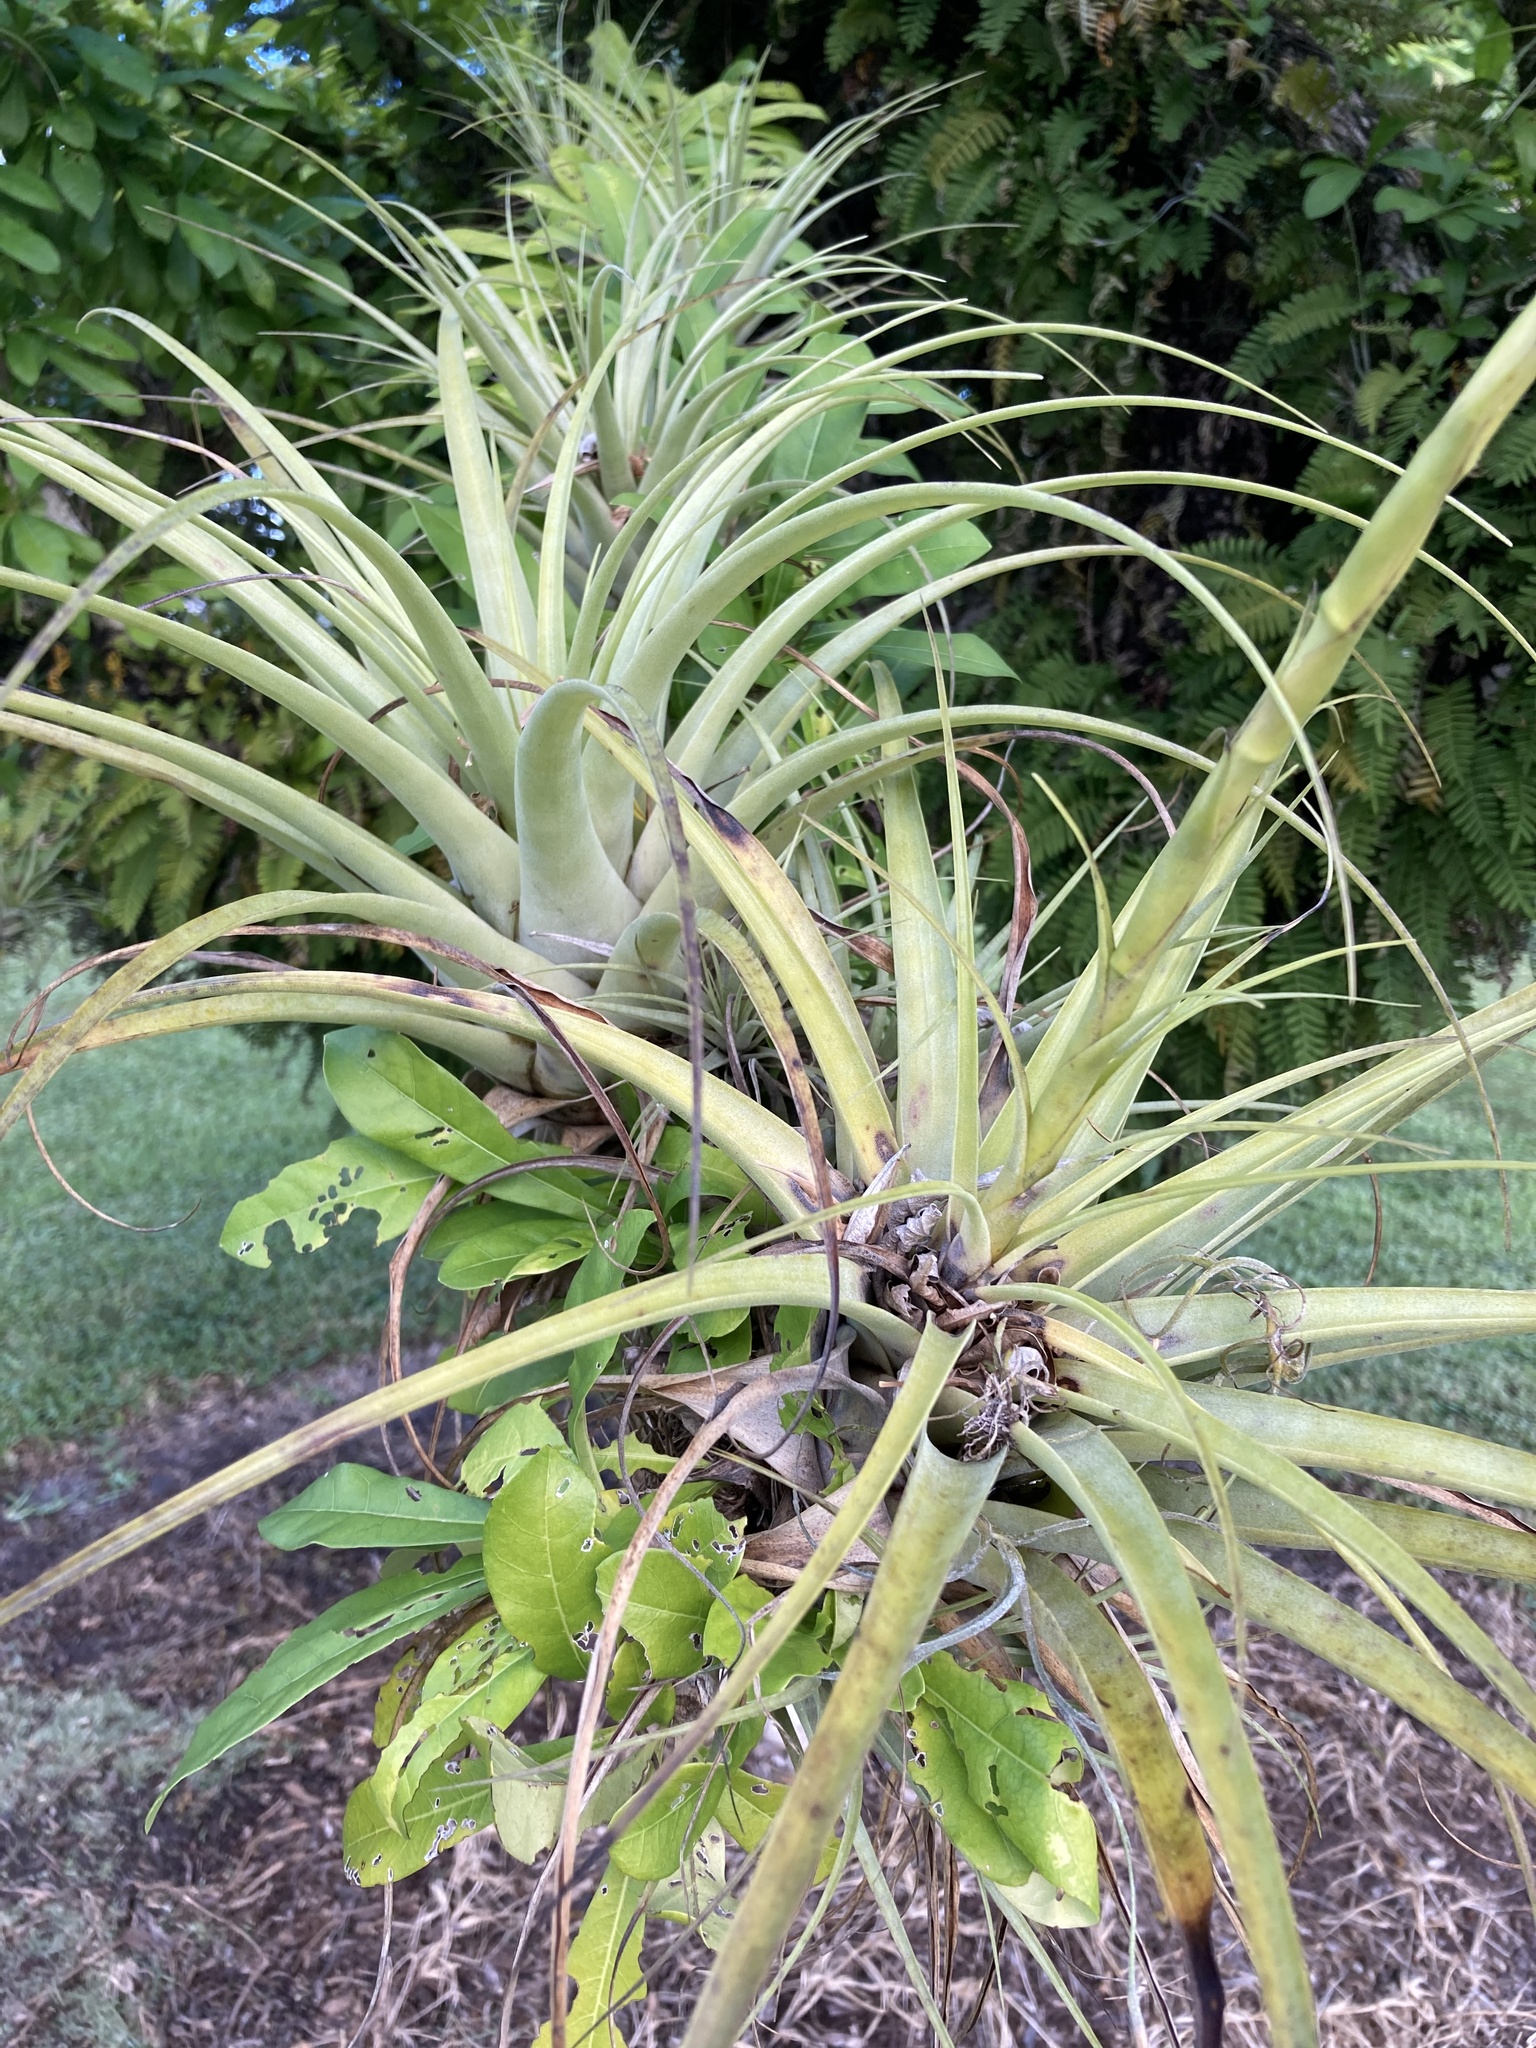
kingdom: Plantae
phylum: Tracheophyta
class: Liliopsida
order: Poales
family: Bromeliaceae
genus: Tillandsia
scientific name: Tillandsia utriculata
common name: Wild pine
